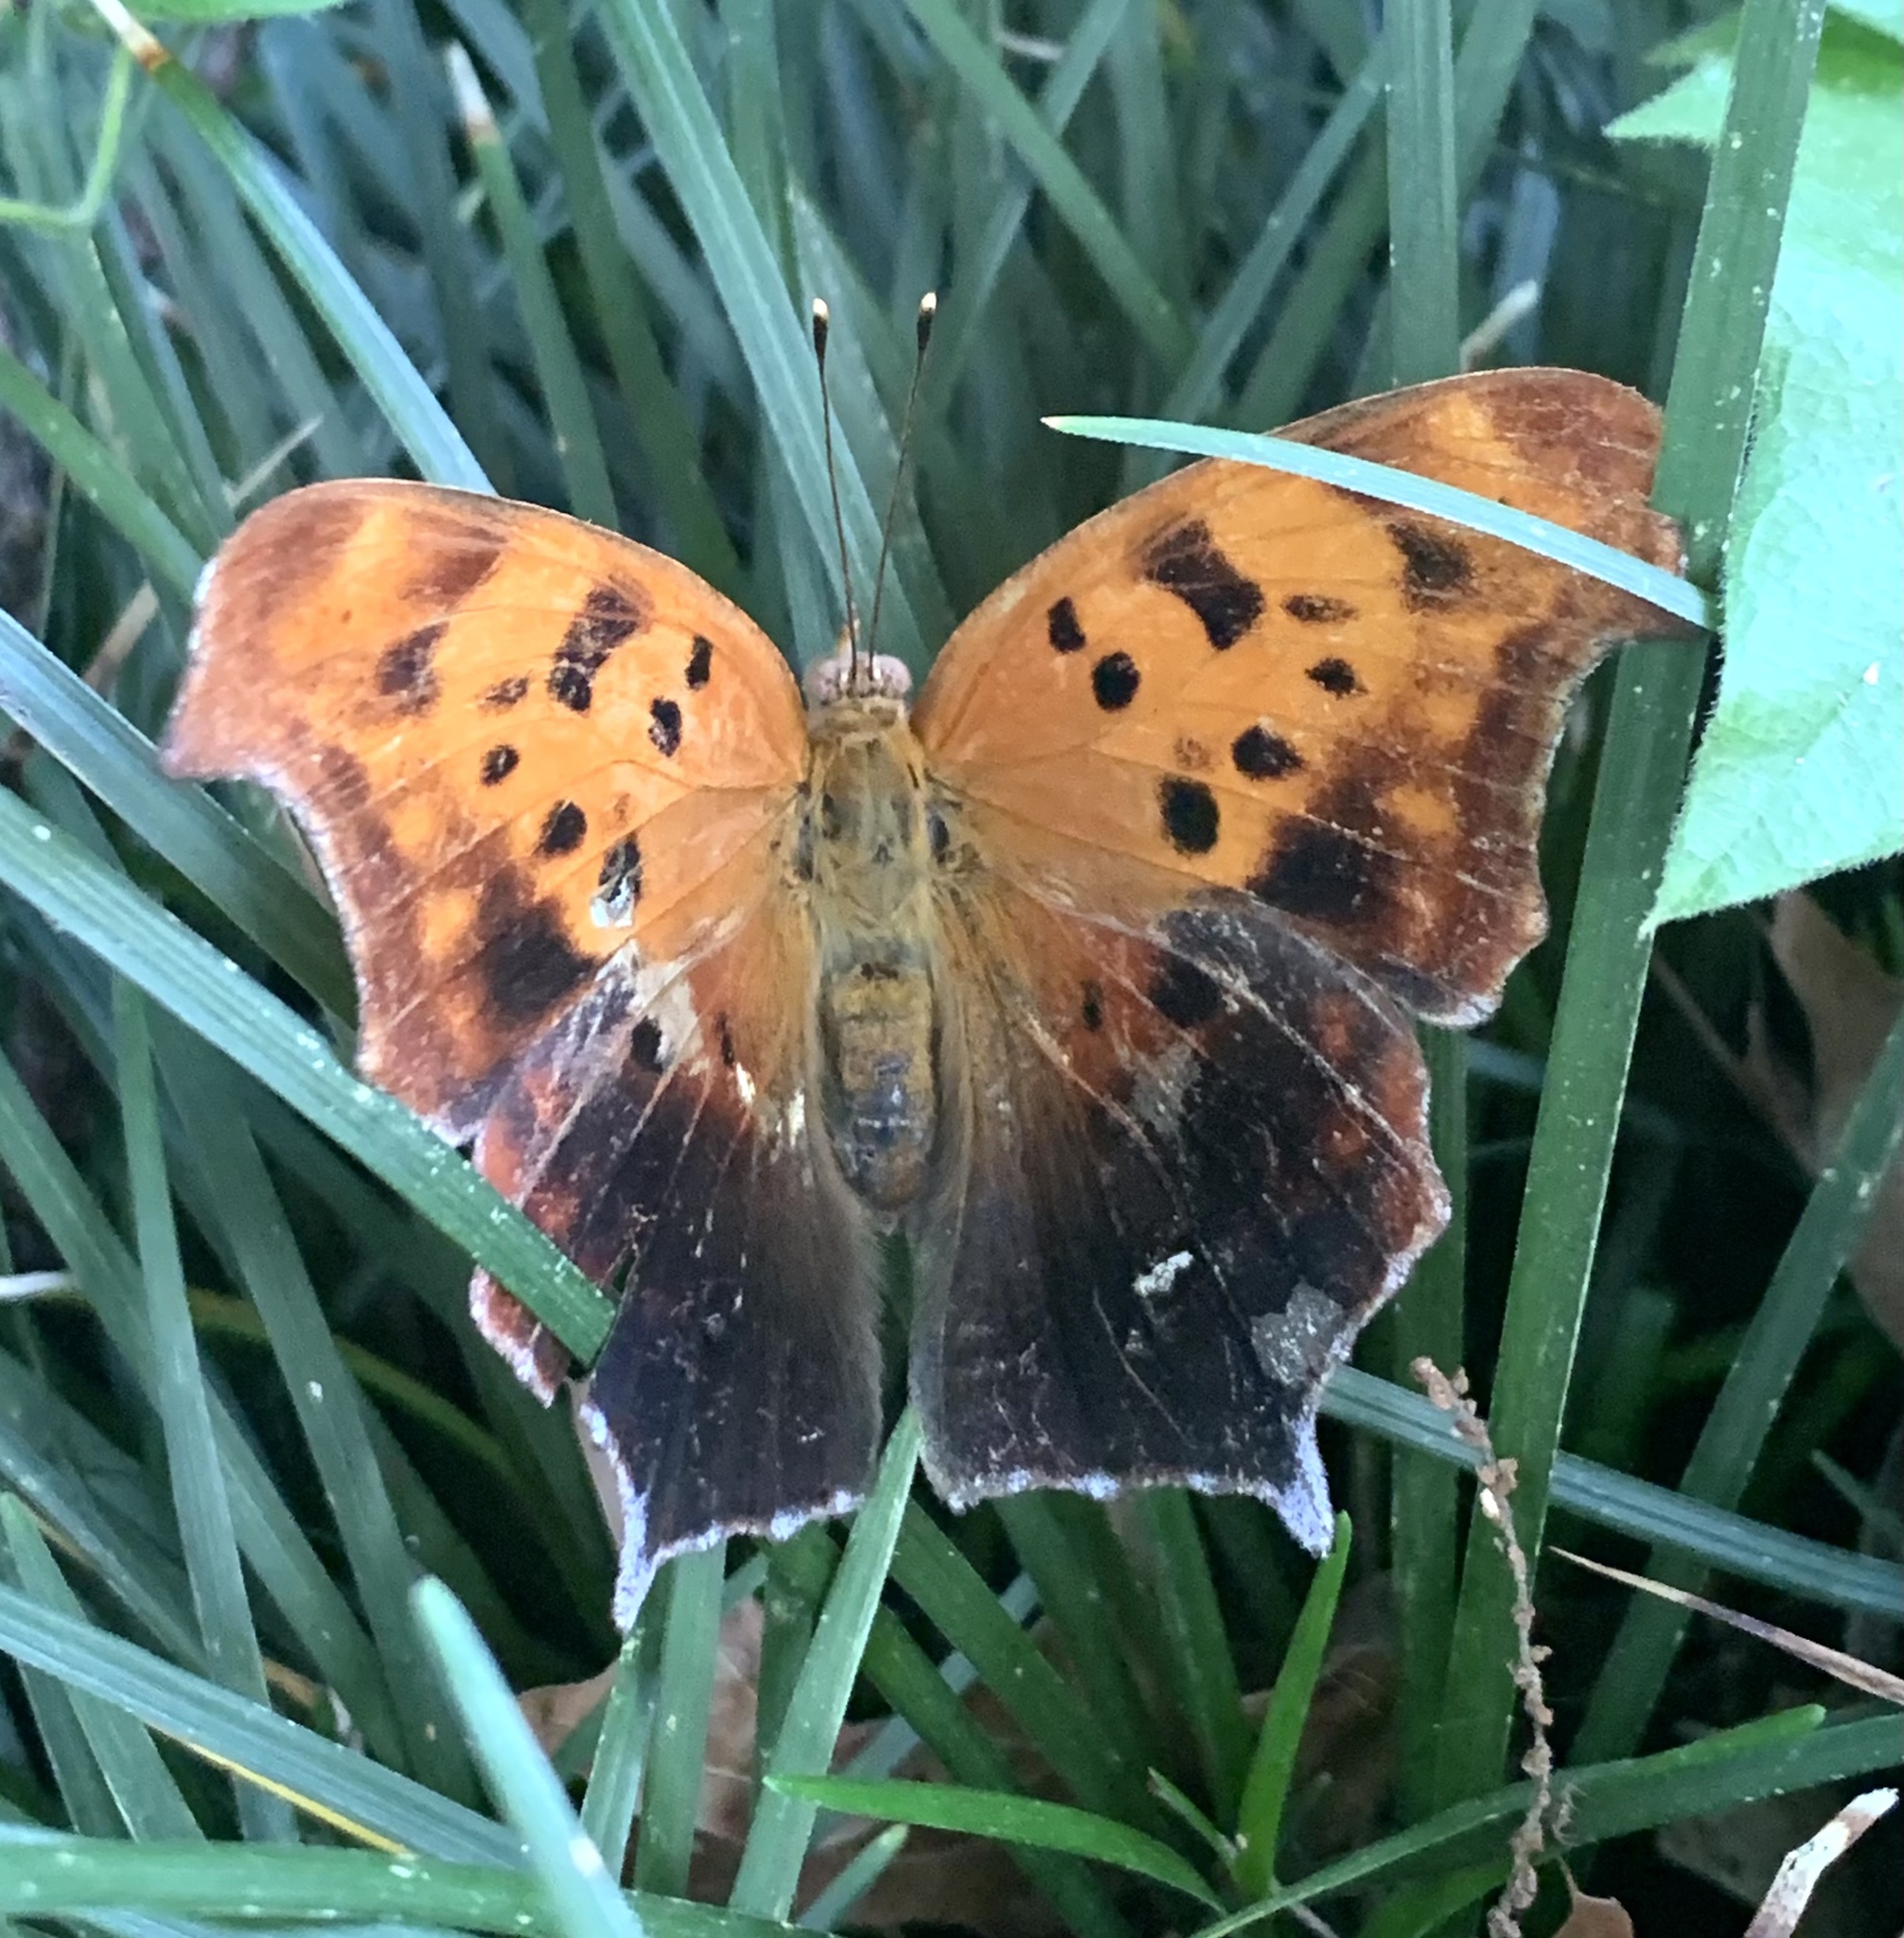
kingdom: Animalia
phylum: Arthropoda
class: Insecta
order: Lepidoptera
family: Nymphalidae
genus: Polygonia
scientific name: Polygonia interrogationis
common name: Question mark
